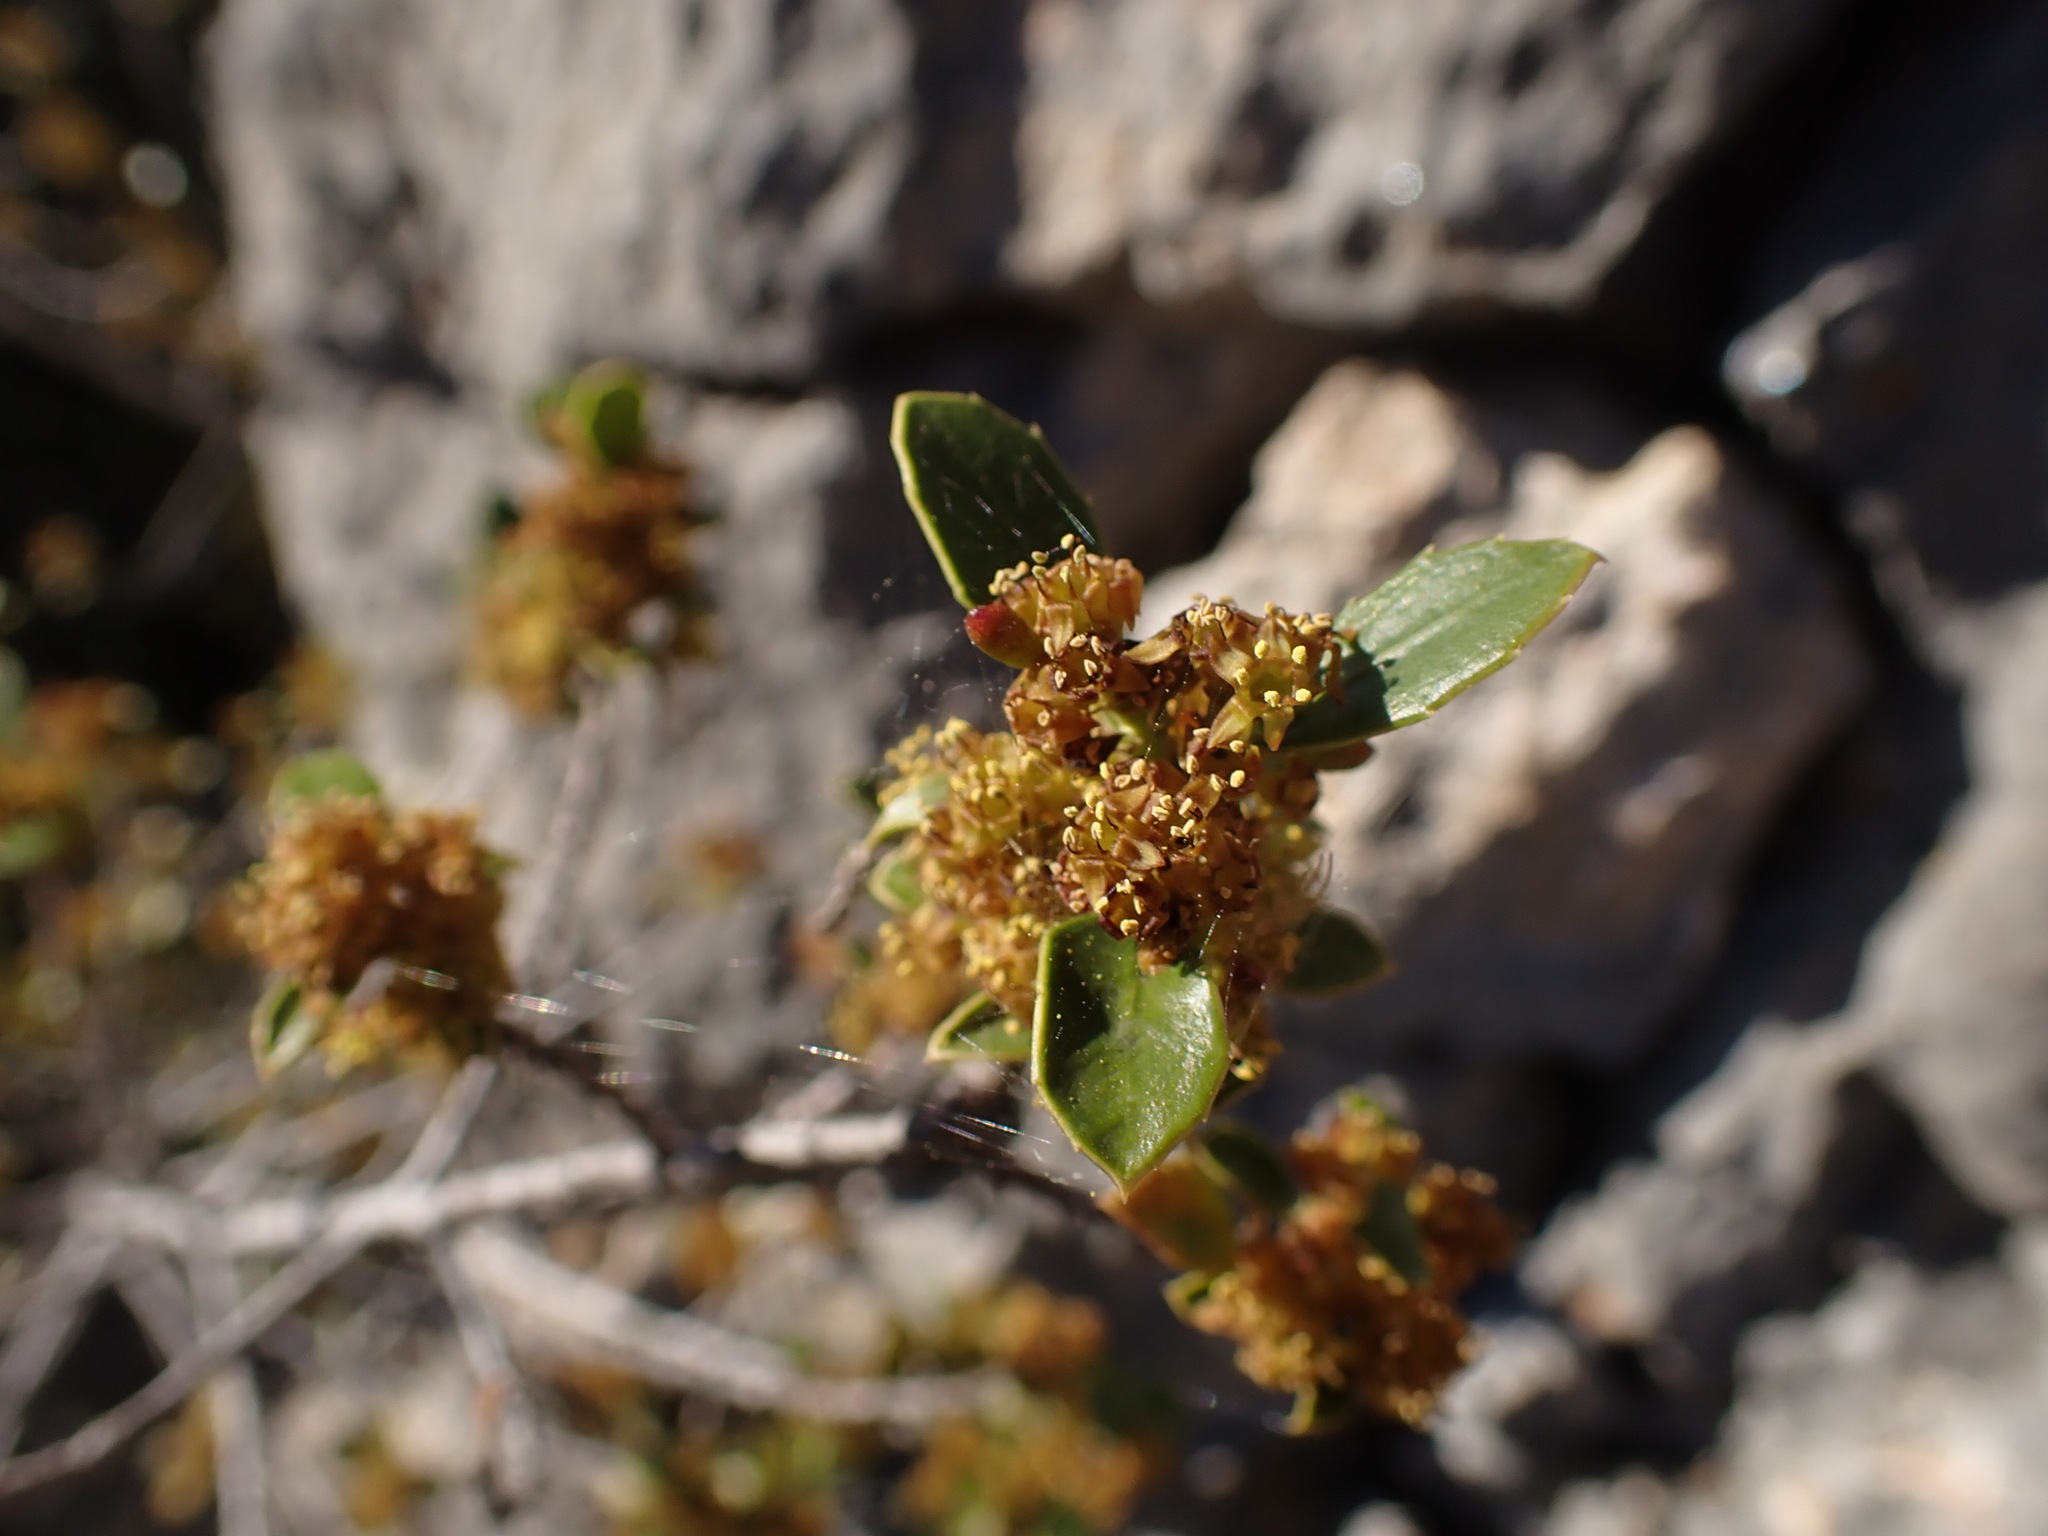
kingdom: Plantae
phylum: Tracheophyta
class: Magnoliopsida
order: Rosales
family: Rhamnaceae
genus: Rhamnus
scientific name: Rhamnus alaternus
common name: Mediterranean buckthorn
